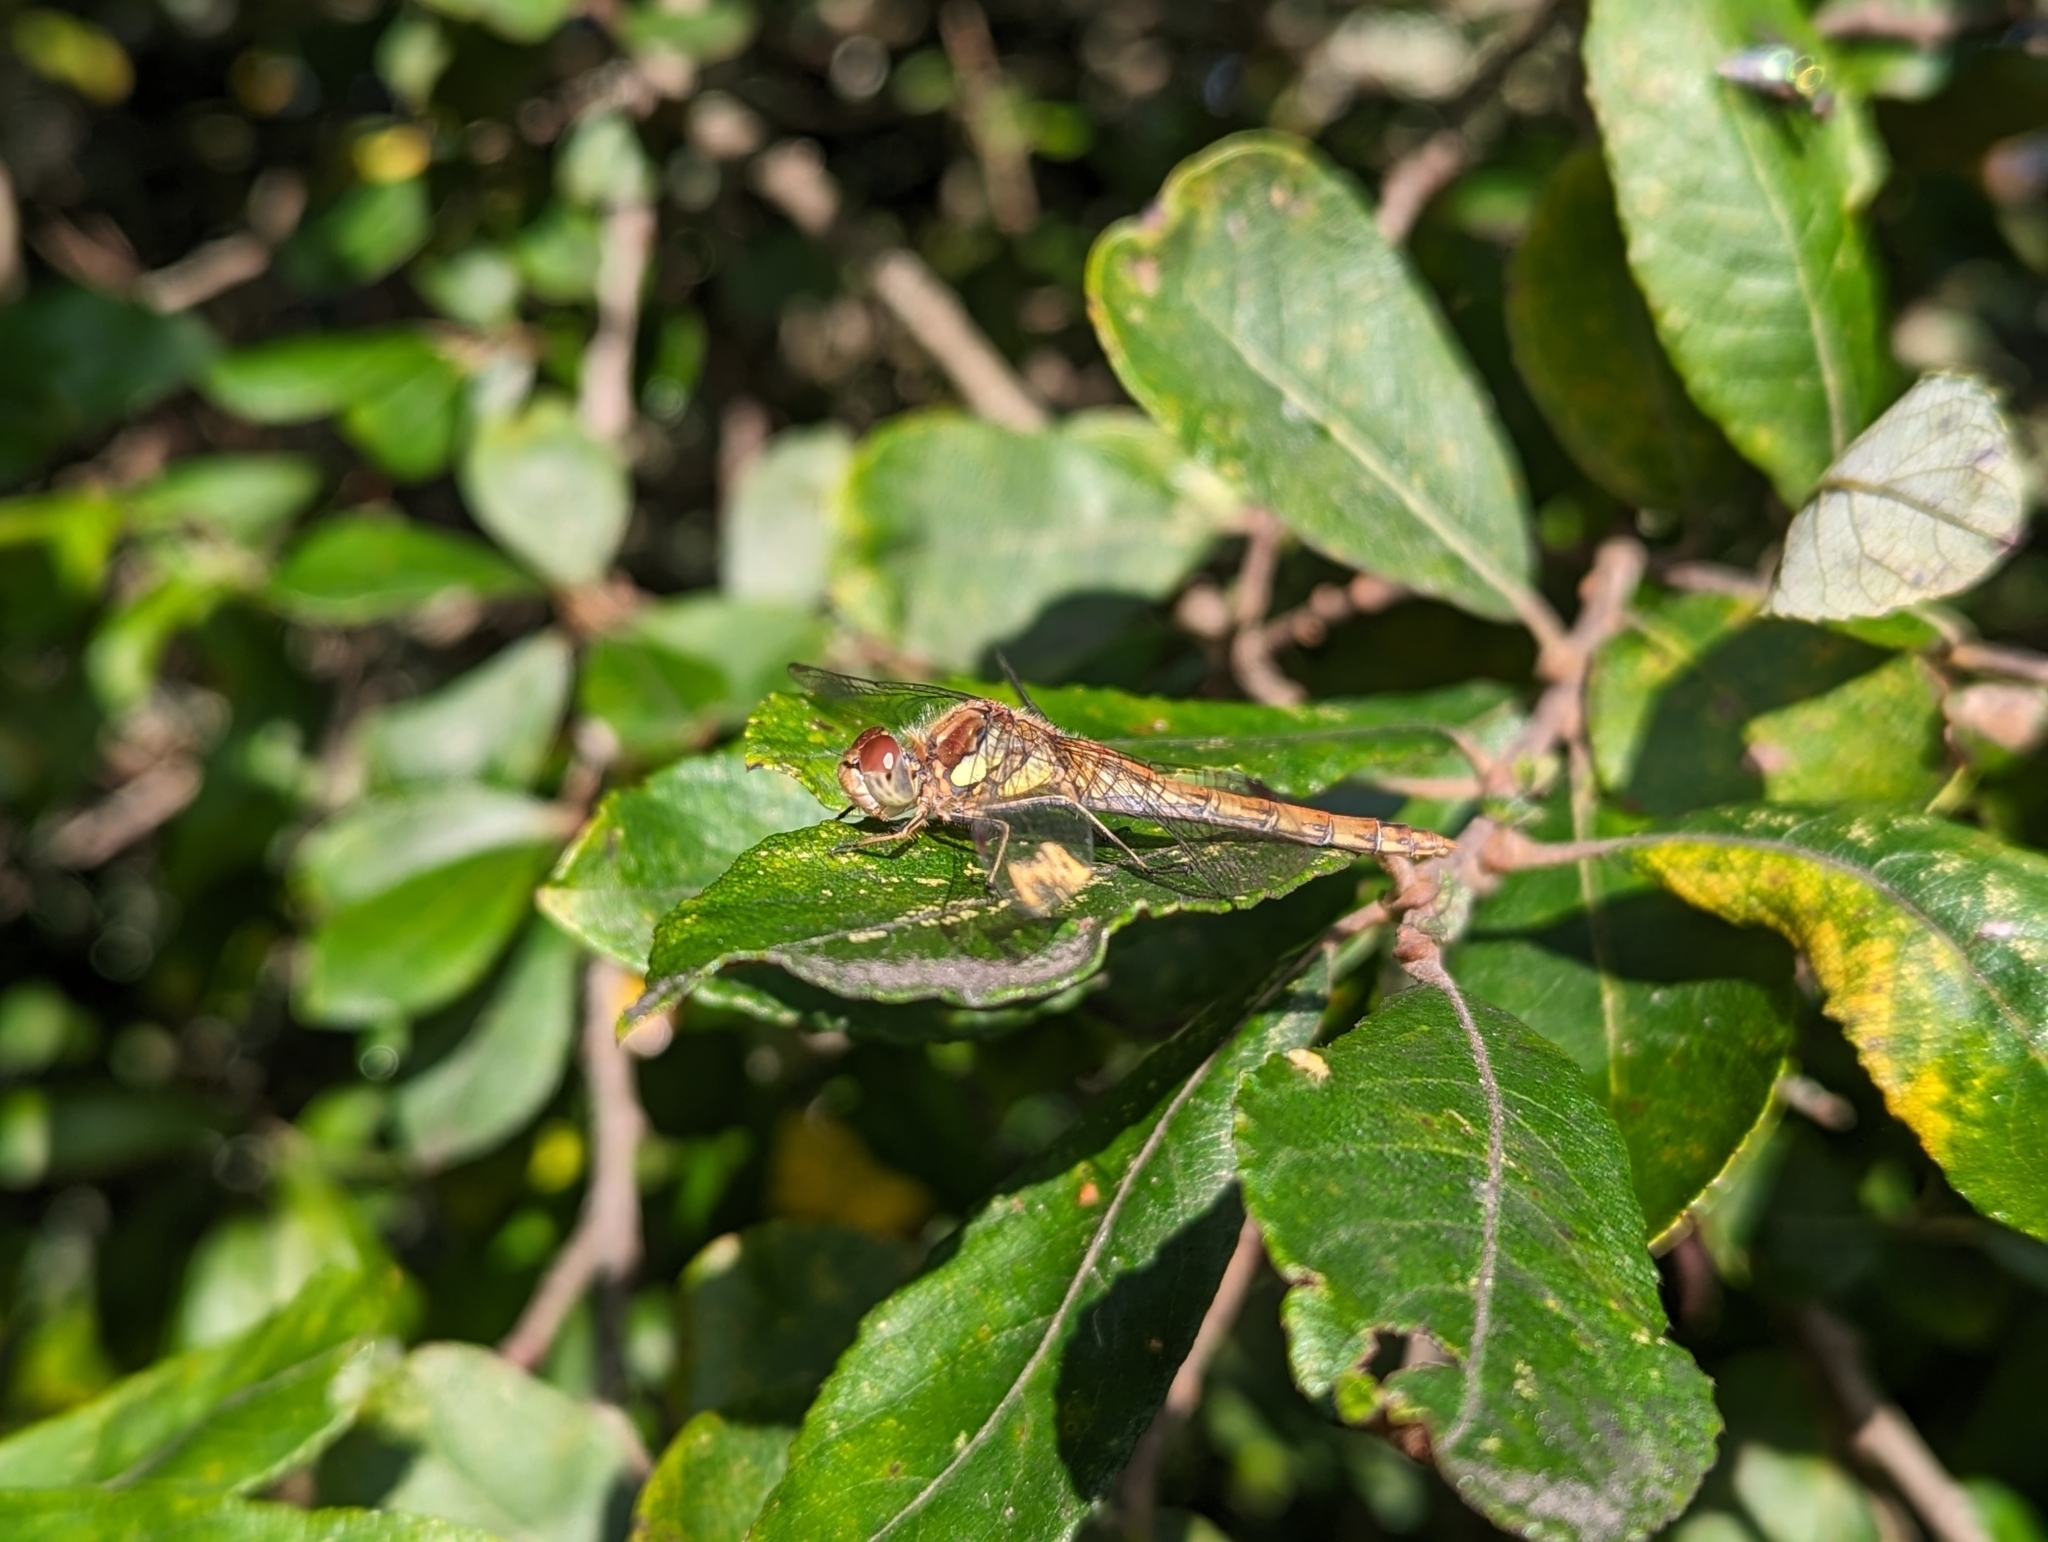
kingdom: Animalia
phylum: Arthropoda
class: Insecta
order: Odonata
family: Libellulidae
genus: Sympetrum
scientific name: Sympetrum striolatum
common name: Common darter
